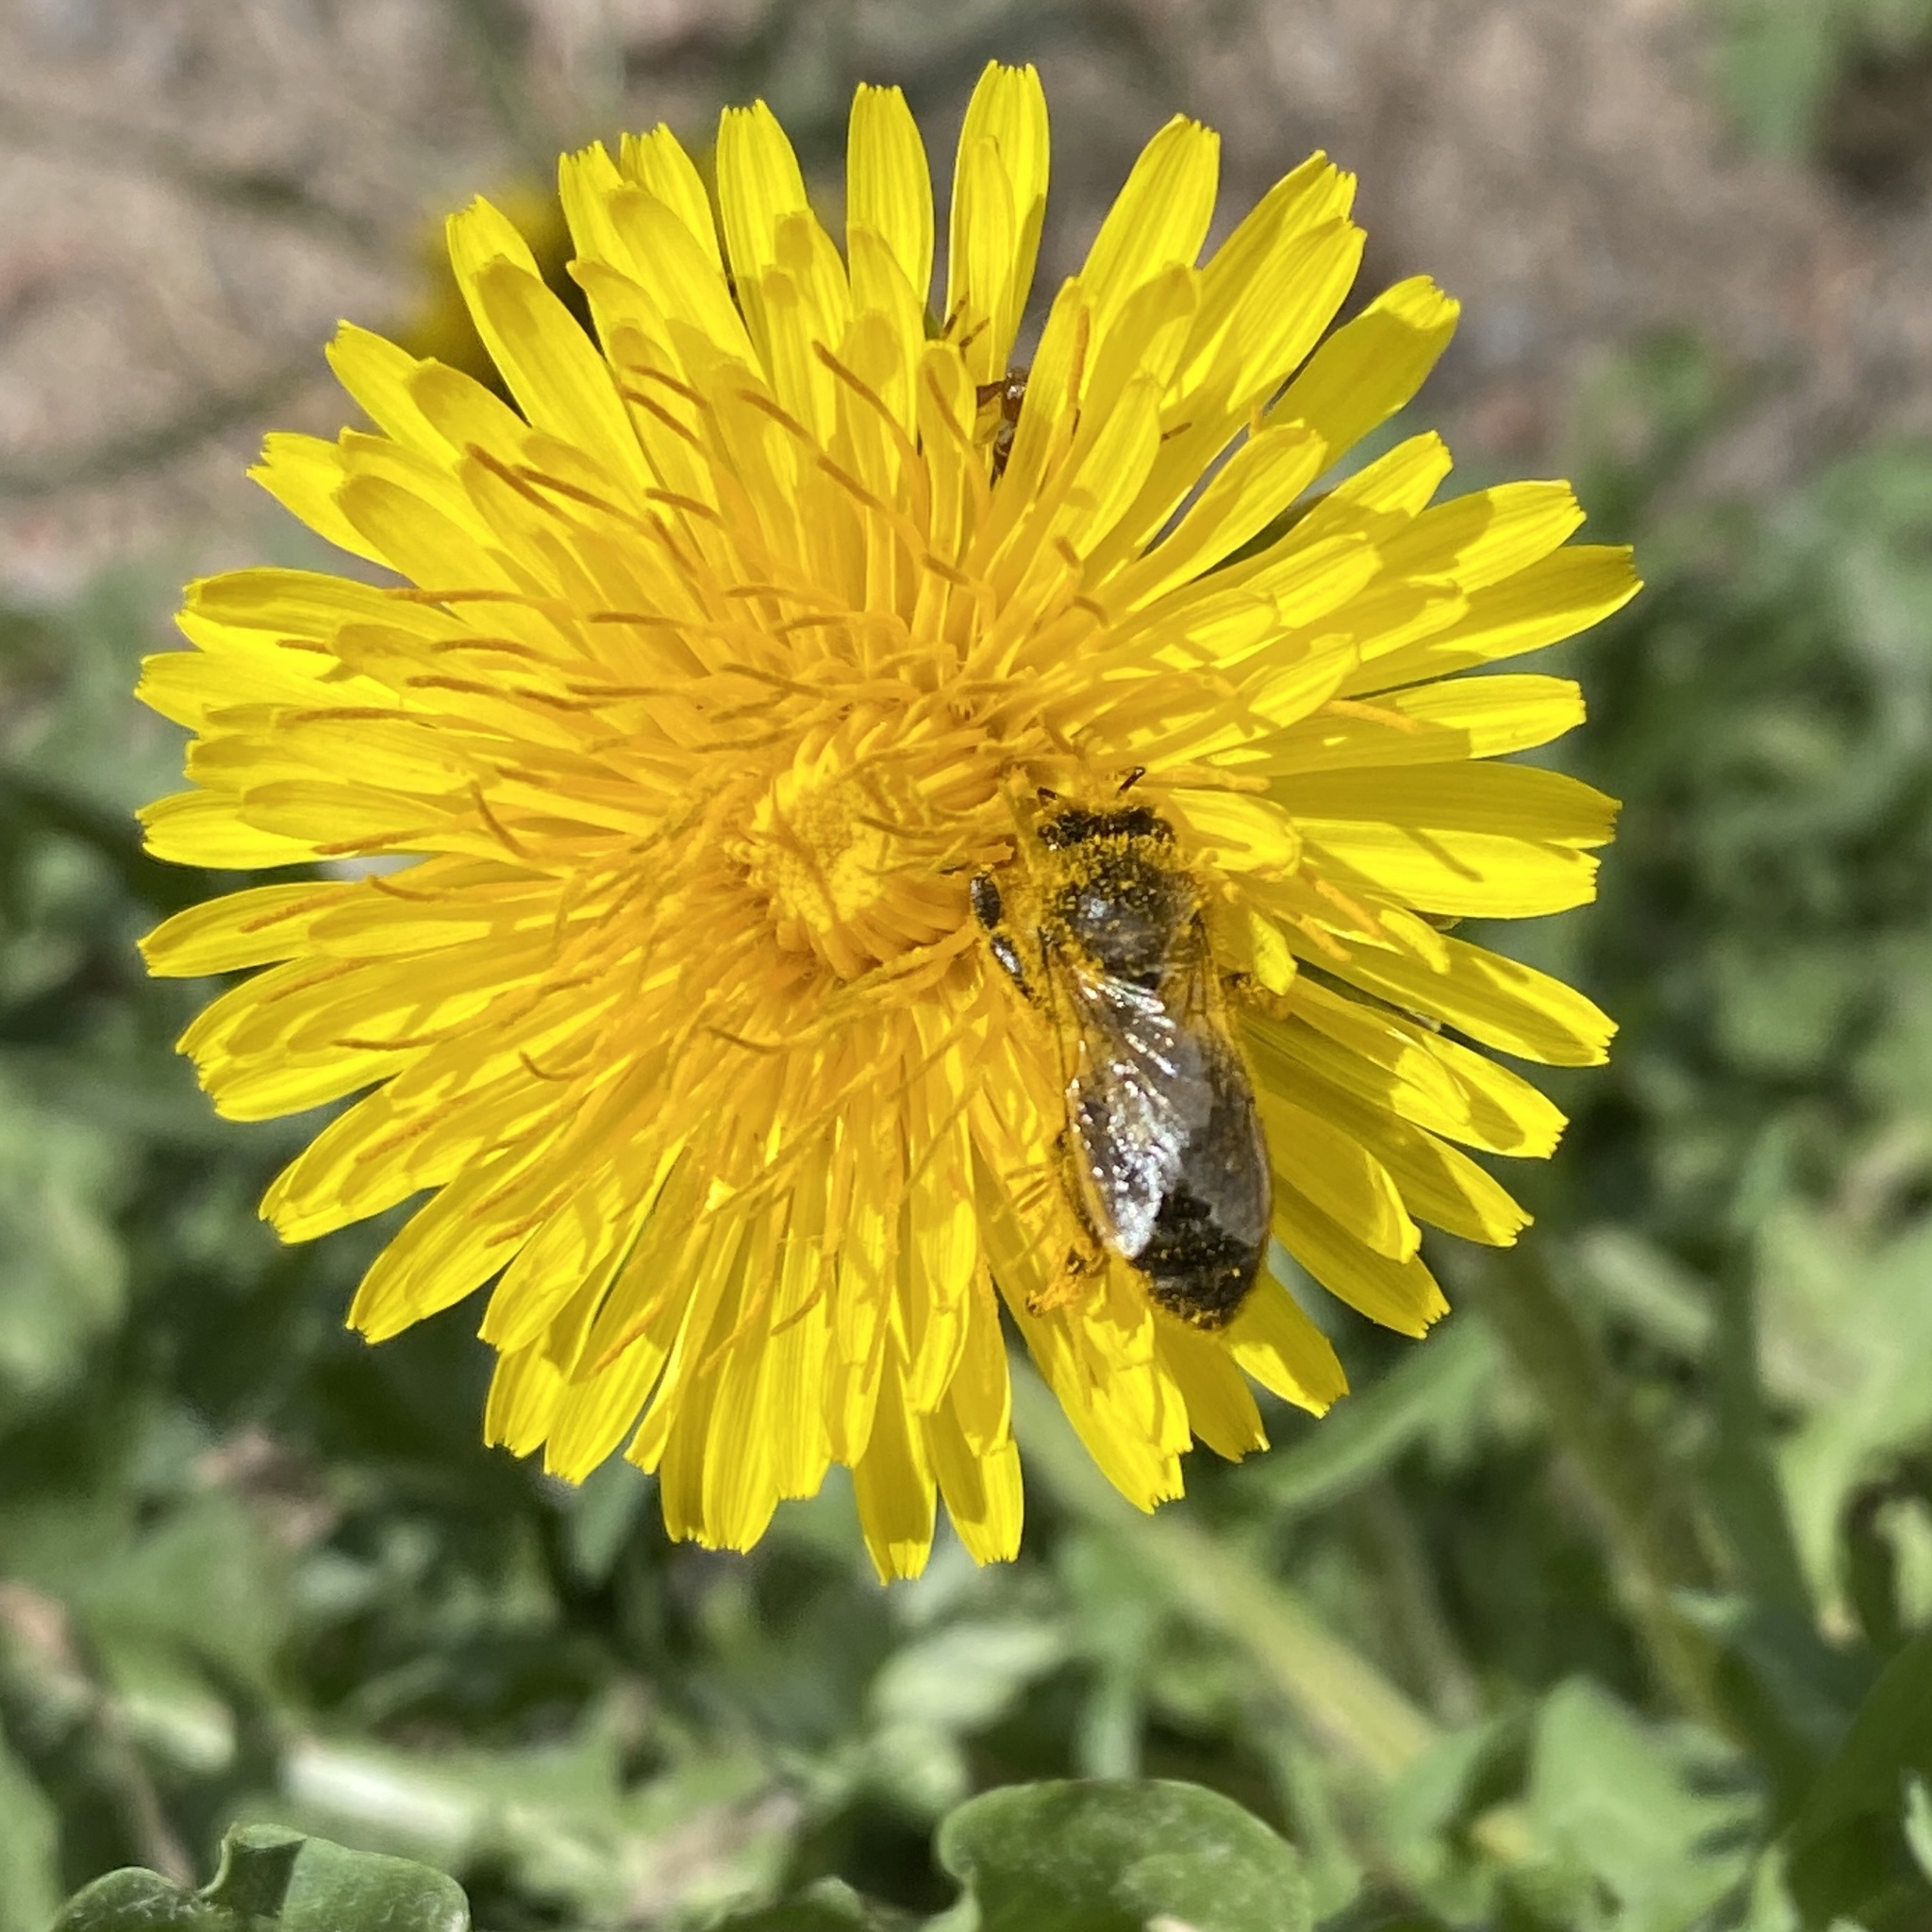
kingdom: Animalia
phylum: Arthropoda
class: Insecta
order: Hymenoptera
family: Apidae
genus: Apis
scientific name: Apis mellifera
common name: Honey bee
